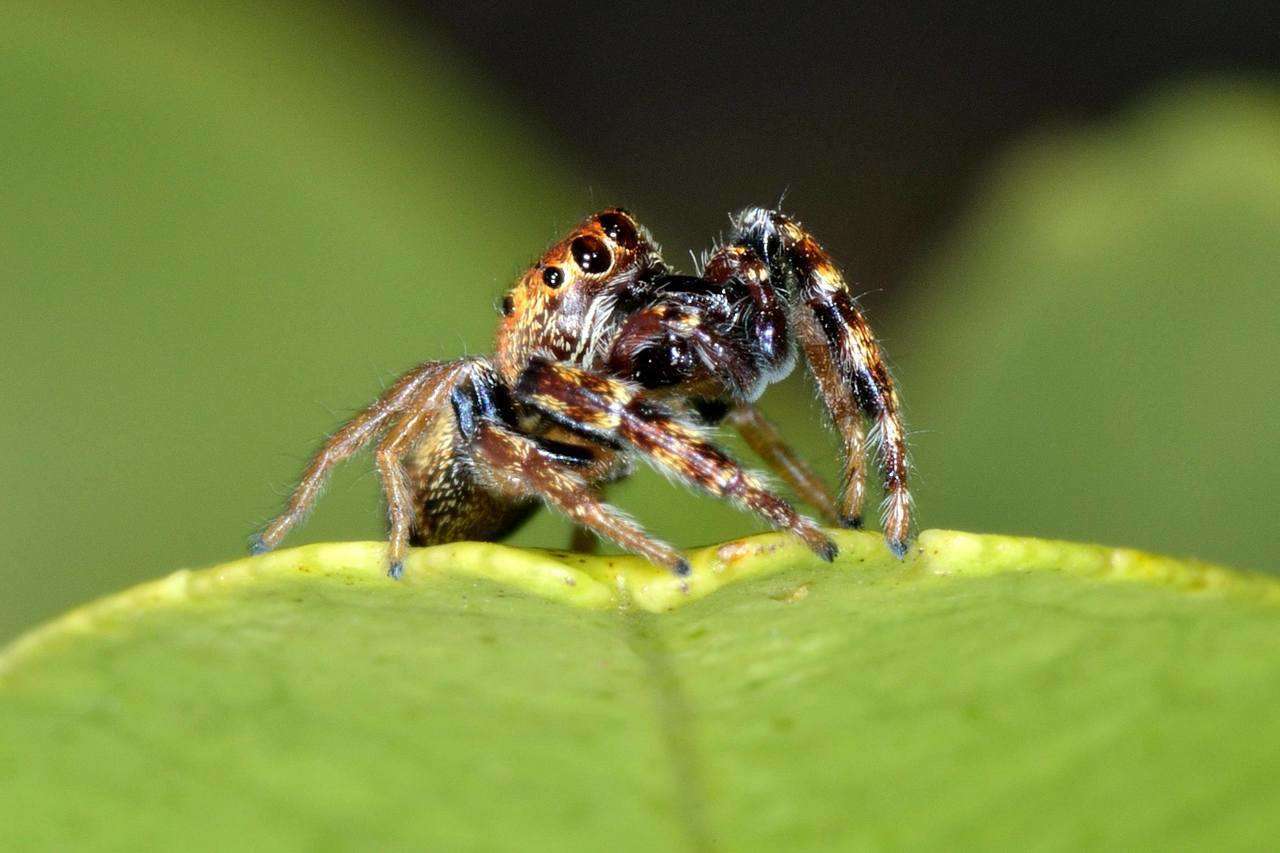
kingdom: Animalia
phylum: Arthropoda
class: Arachnida
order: Araneae
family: Salticidae
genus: Opisthoncus
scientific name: Opisthoncus sexmaculatus
